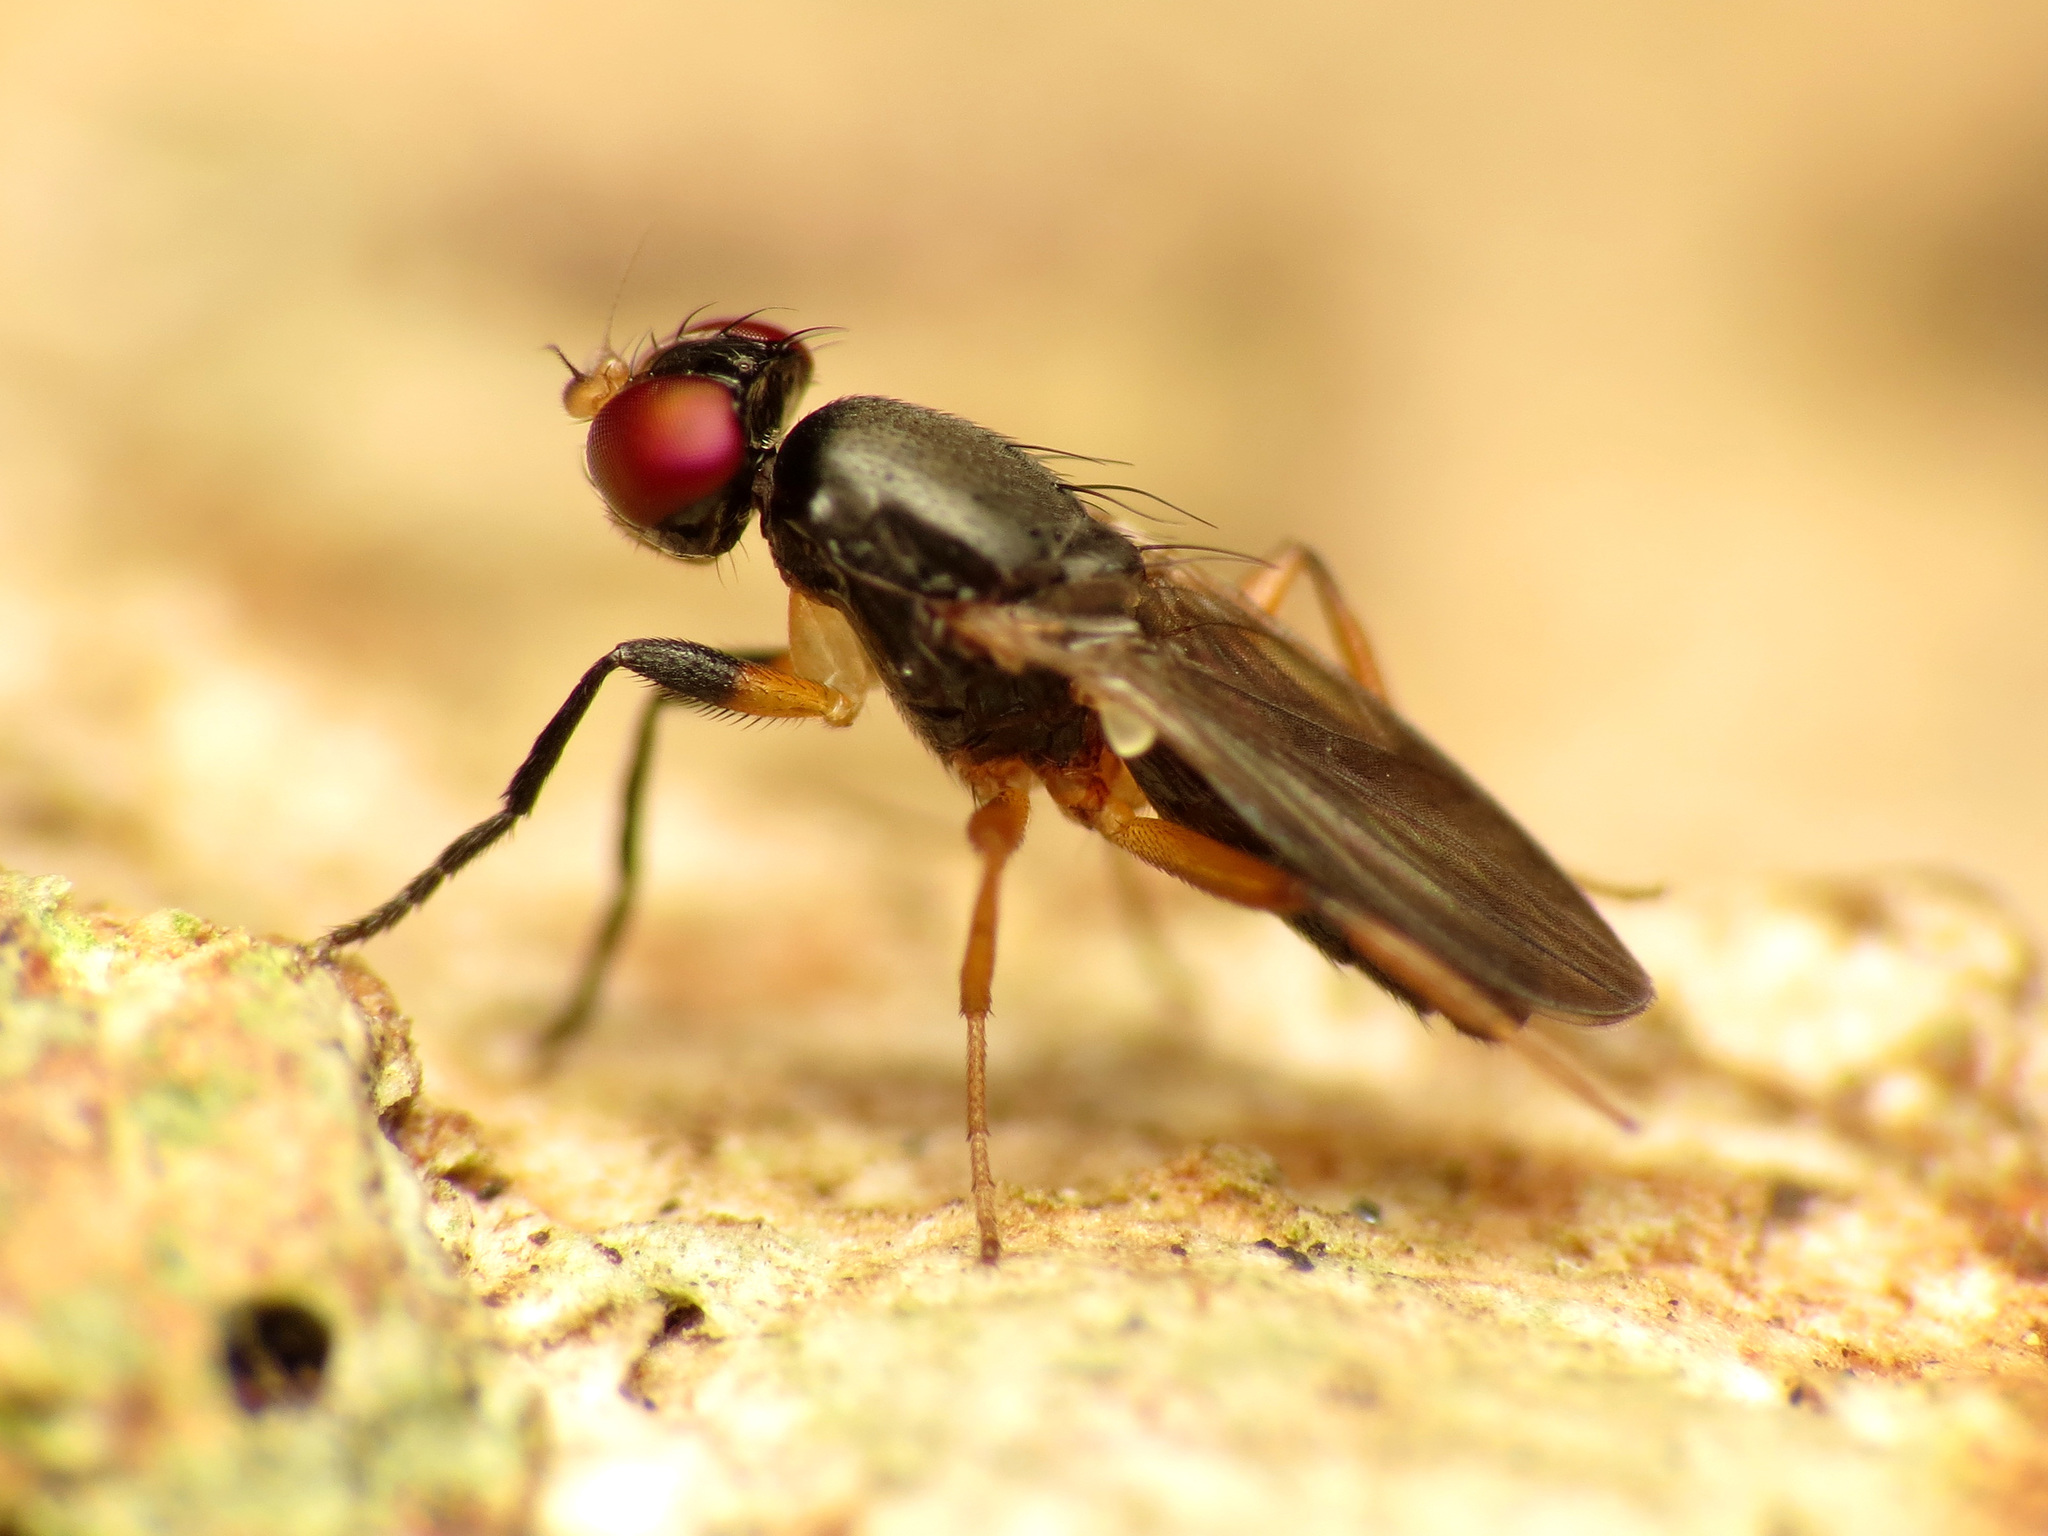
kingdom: Animalia
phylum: Arthropoda
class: Insecta
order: Diptera
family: Clusiidae
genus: Heteromeringia
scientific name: Heteromeringia nitida
